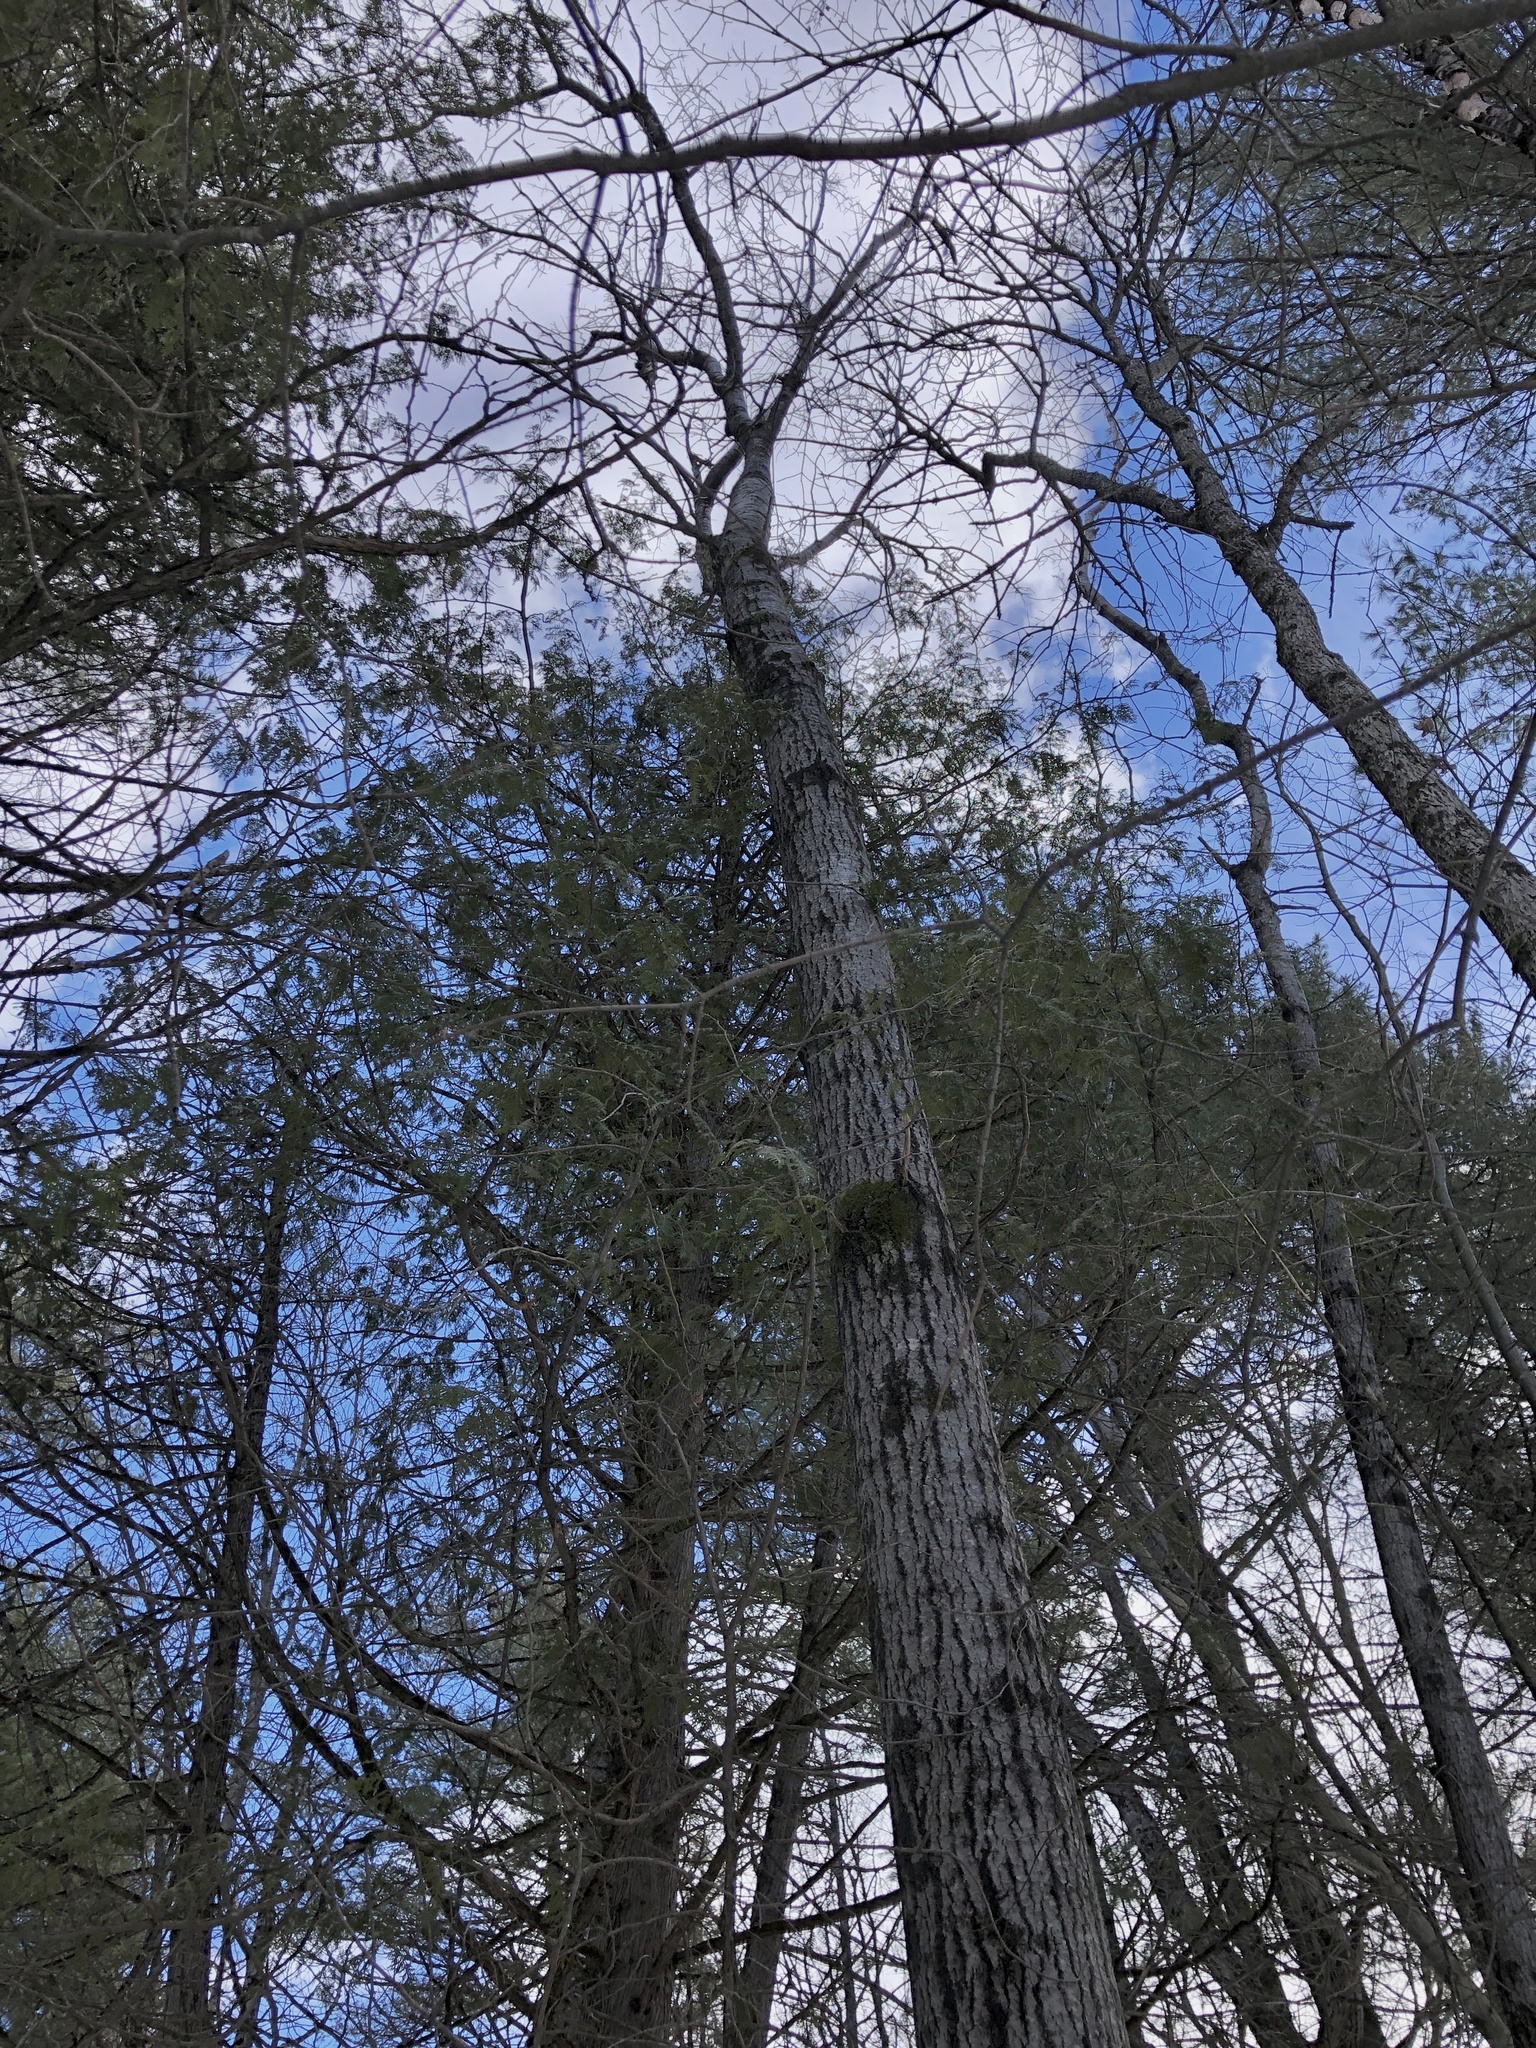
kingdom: Plantae
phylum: Tracheophyta
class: Magnoliopsida
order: Malpighiales
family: Salicaceae
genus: Populus
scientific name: Populus tremuloides
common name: Quaking aspen
